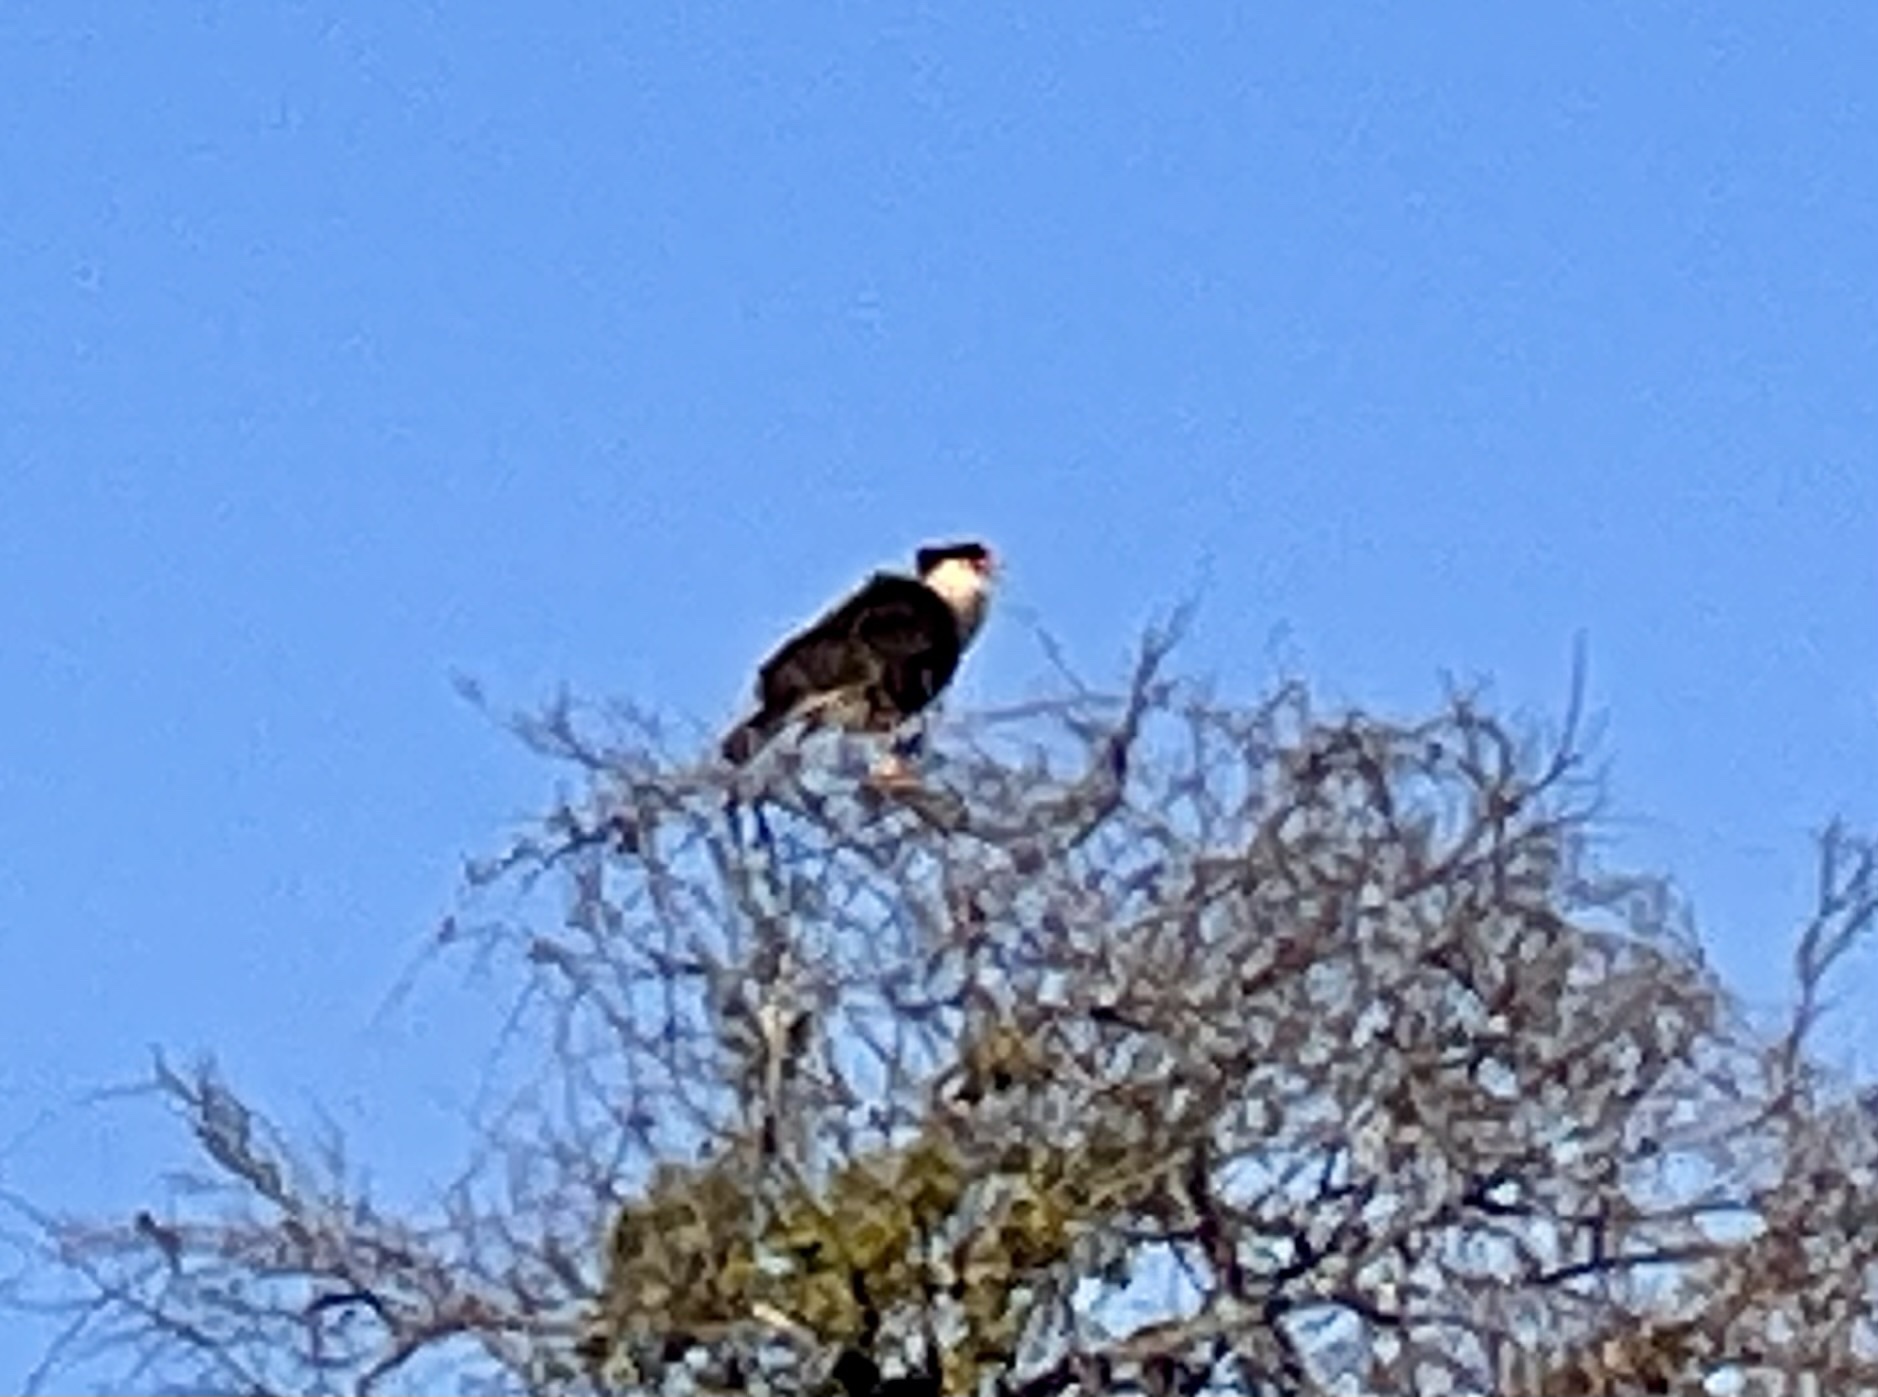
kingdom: Animalia
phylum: Chordata
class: Aves
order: Falconiformes
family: Falconidae
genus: Caracara
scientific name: Caracara plancus
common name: Southern caracara
